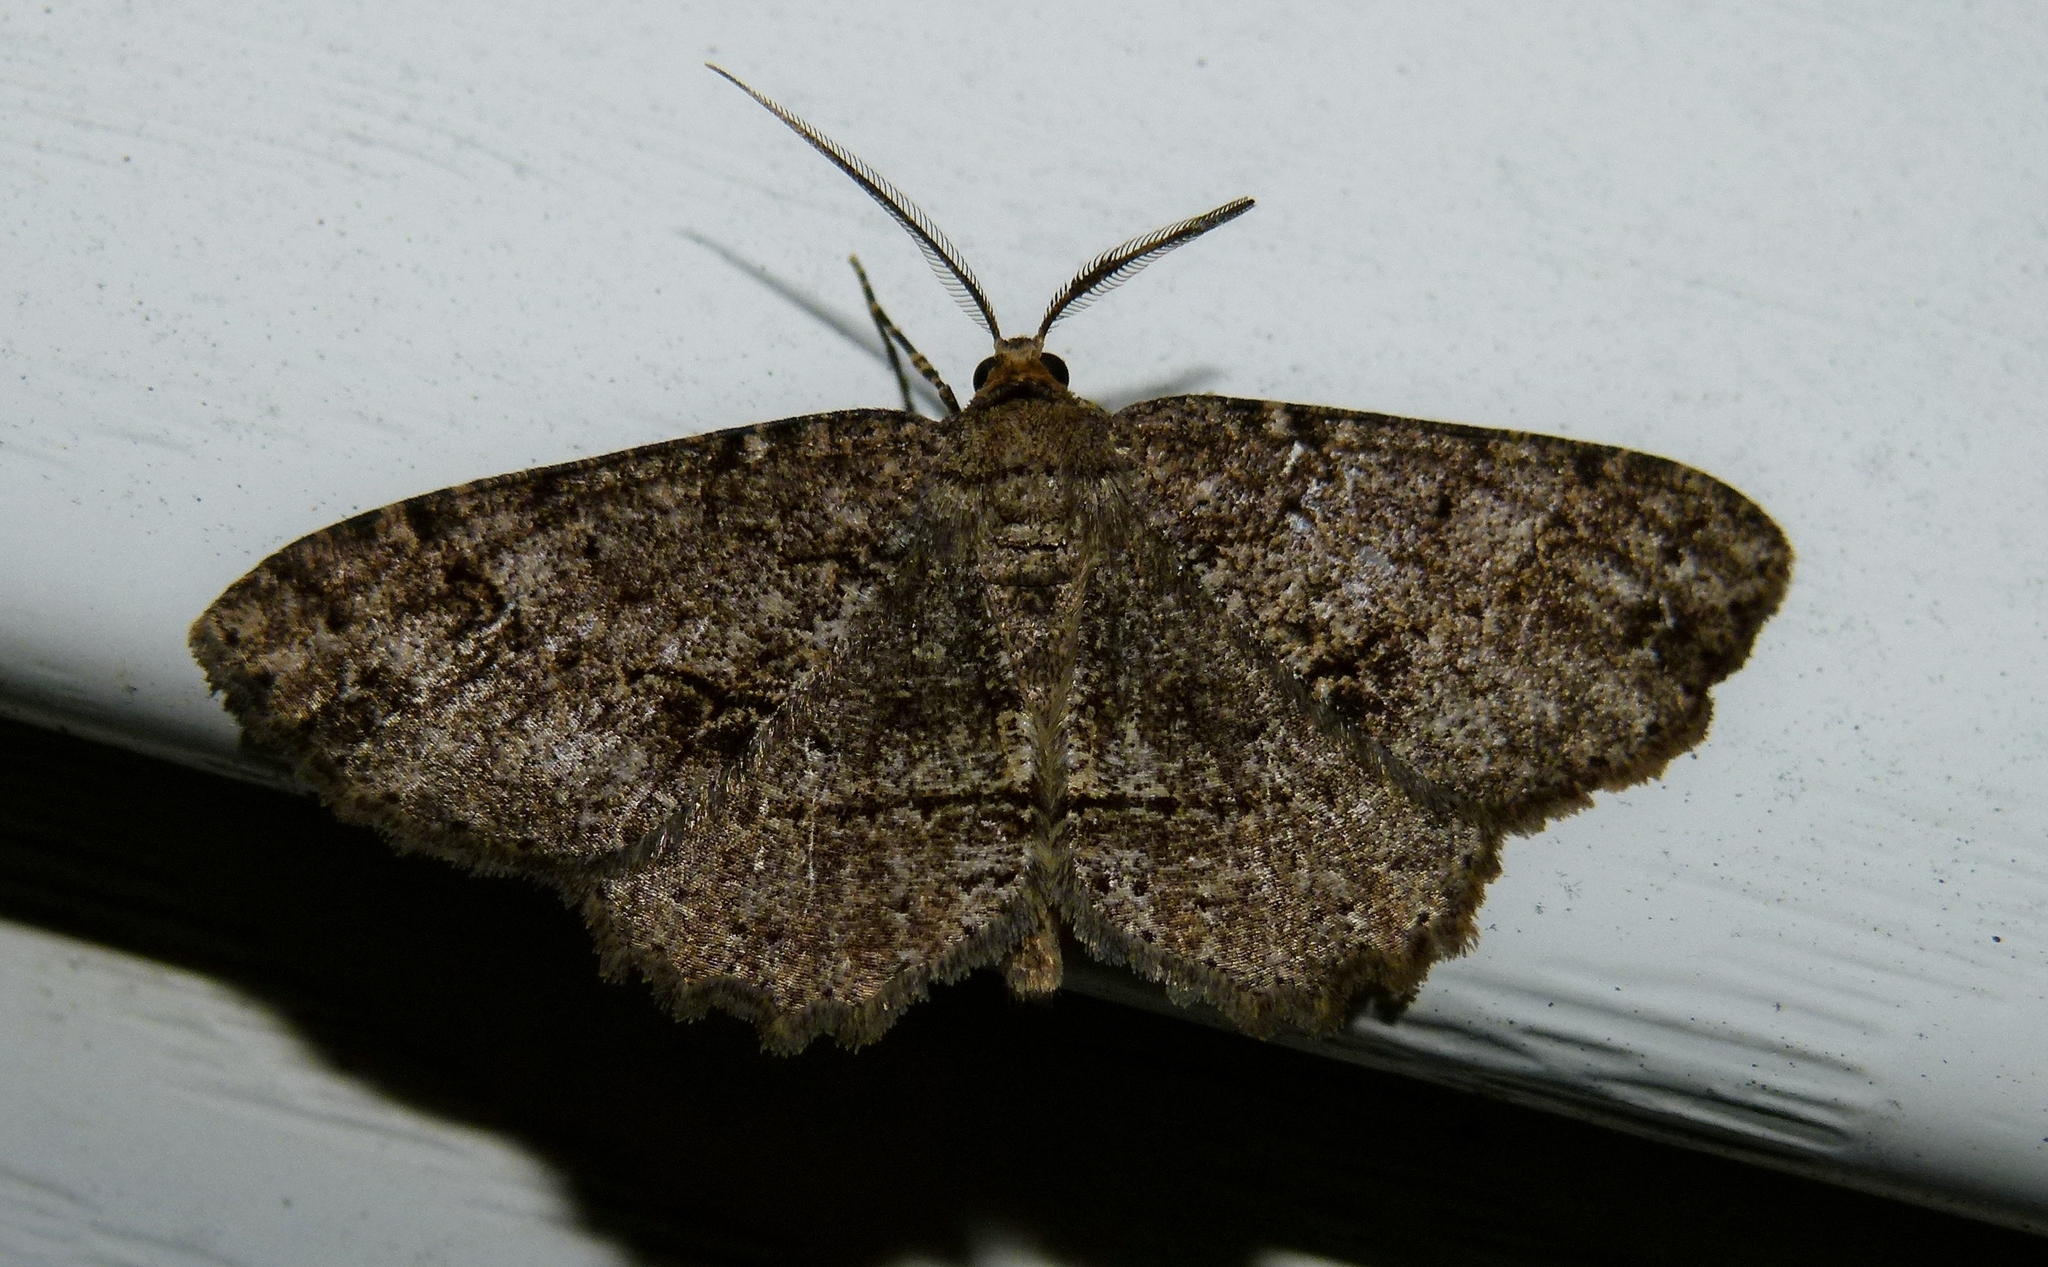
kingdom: Animalia
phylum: Arthropoda
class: Insecta
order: Lepidoptera
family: Geometridae
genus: Melanolophia
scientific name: Melanolophia canadaria
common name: Canadian melanolophia
